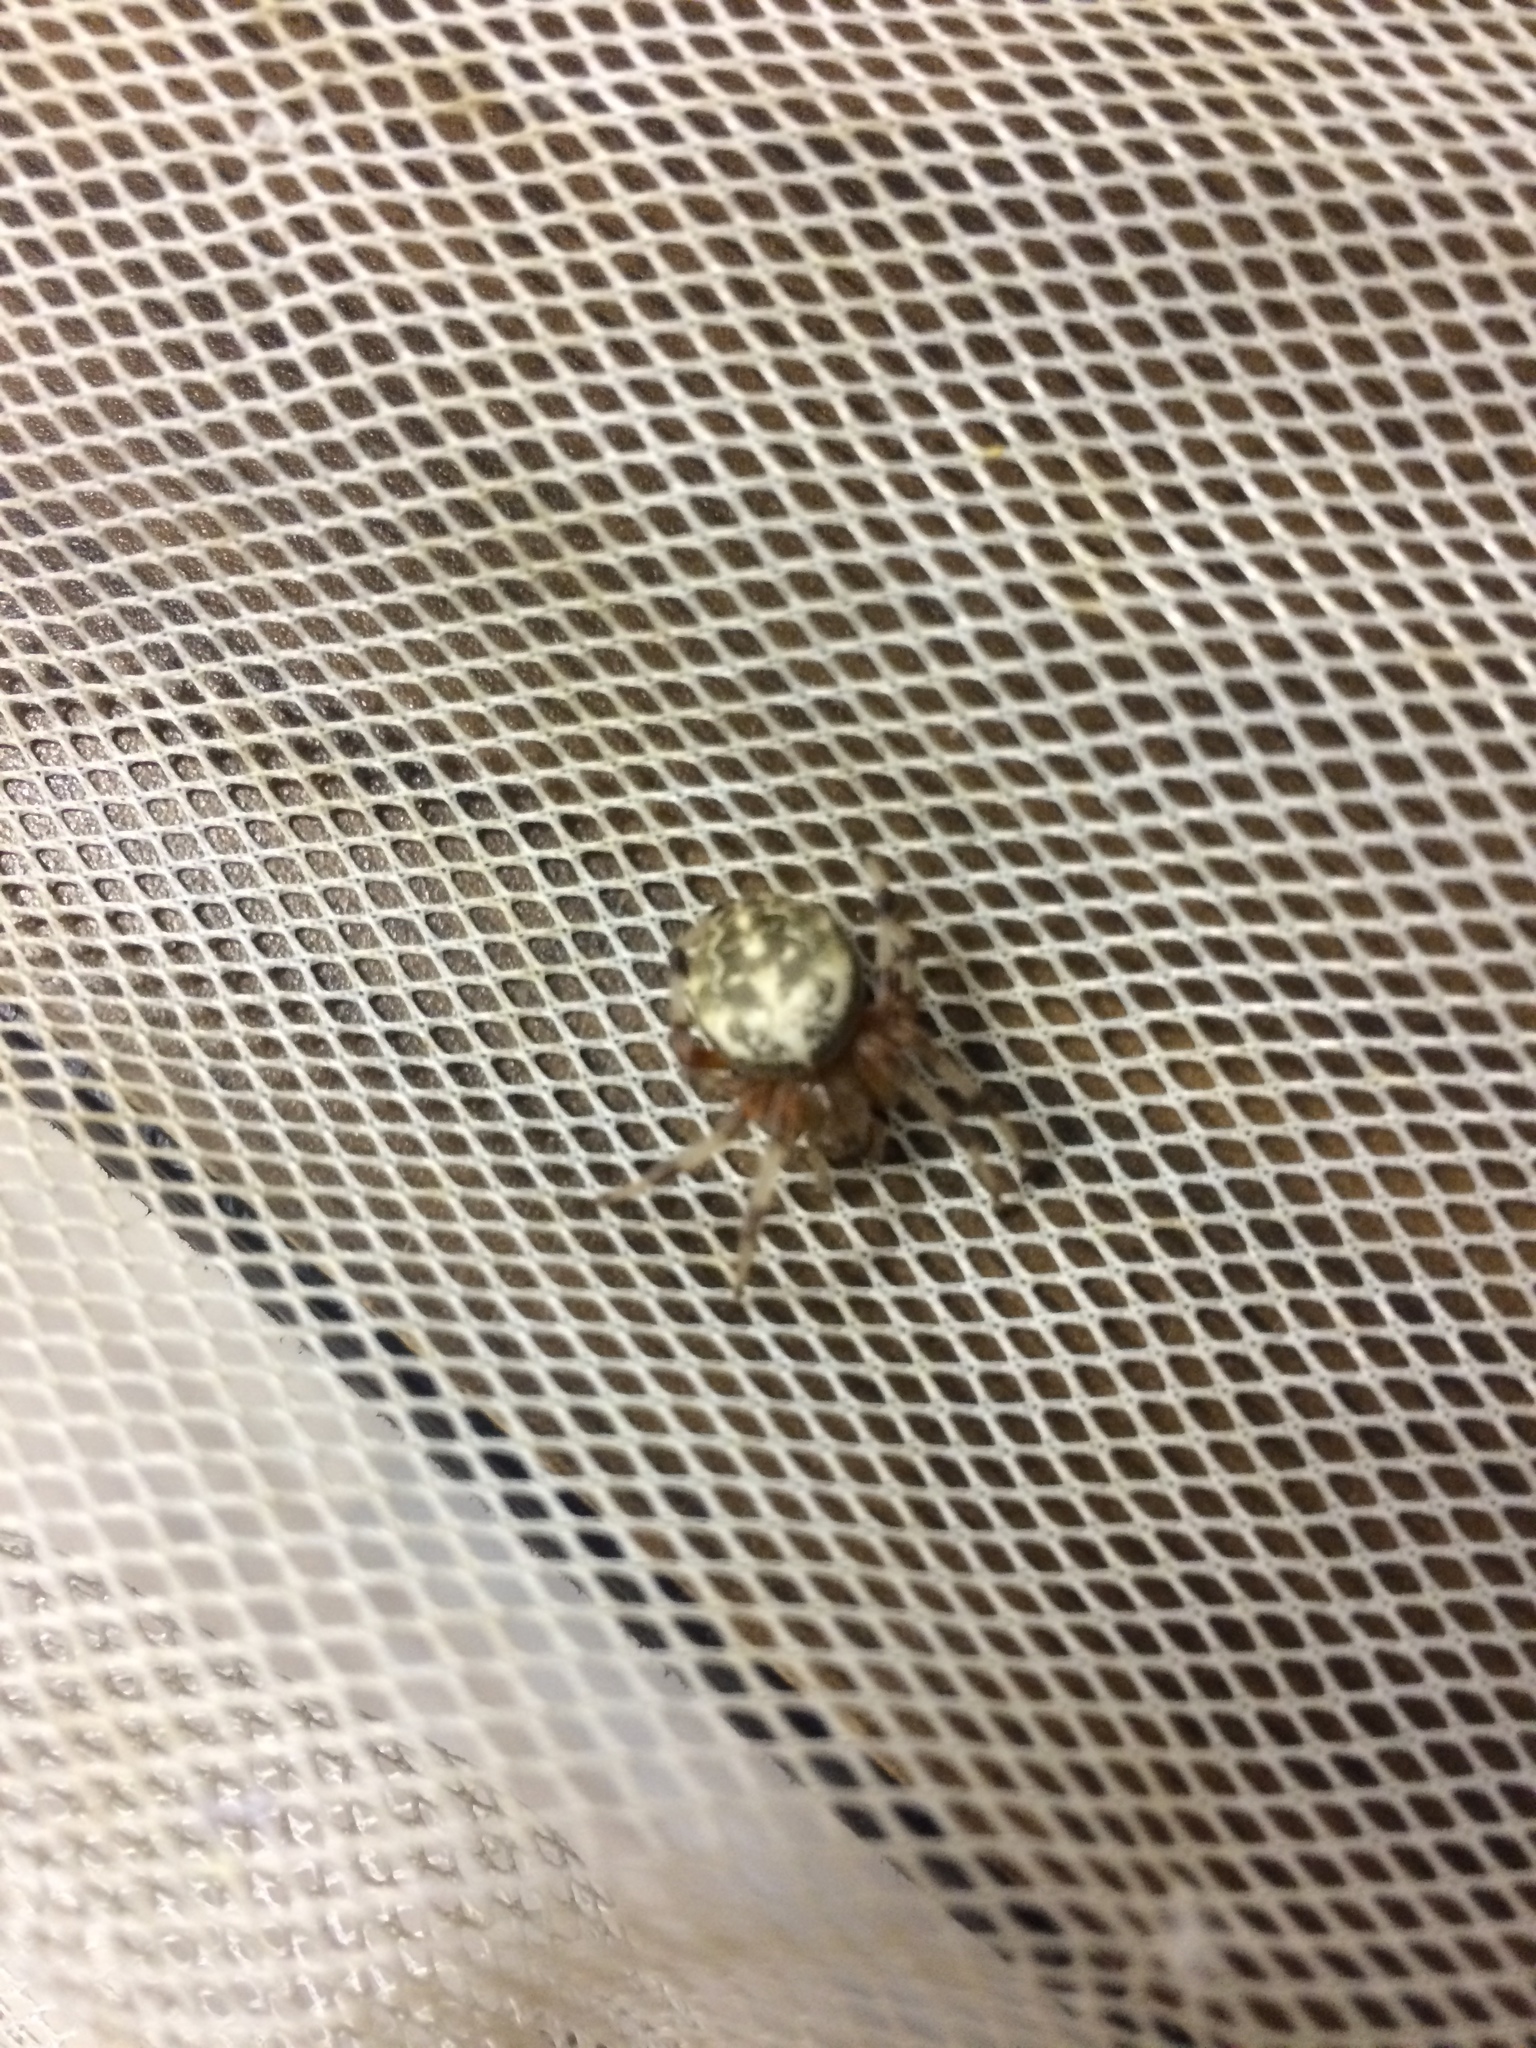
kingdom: Animalia
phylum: Arthropoda
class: Arachnida
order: Araneae
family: Araneidae
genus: Araneus
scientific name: Araneus marmoreus
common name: Marbled orbweaver
